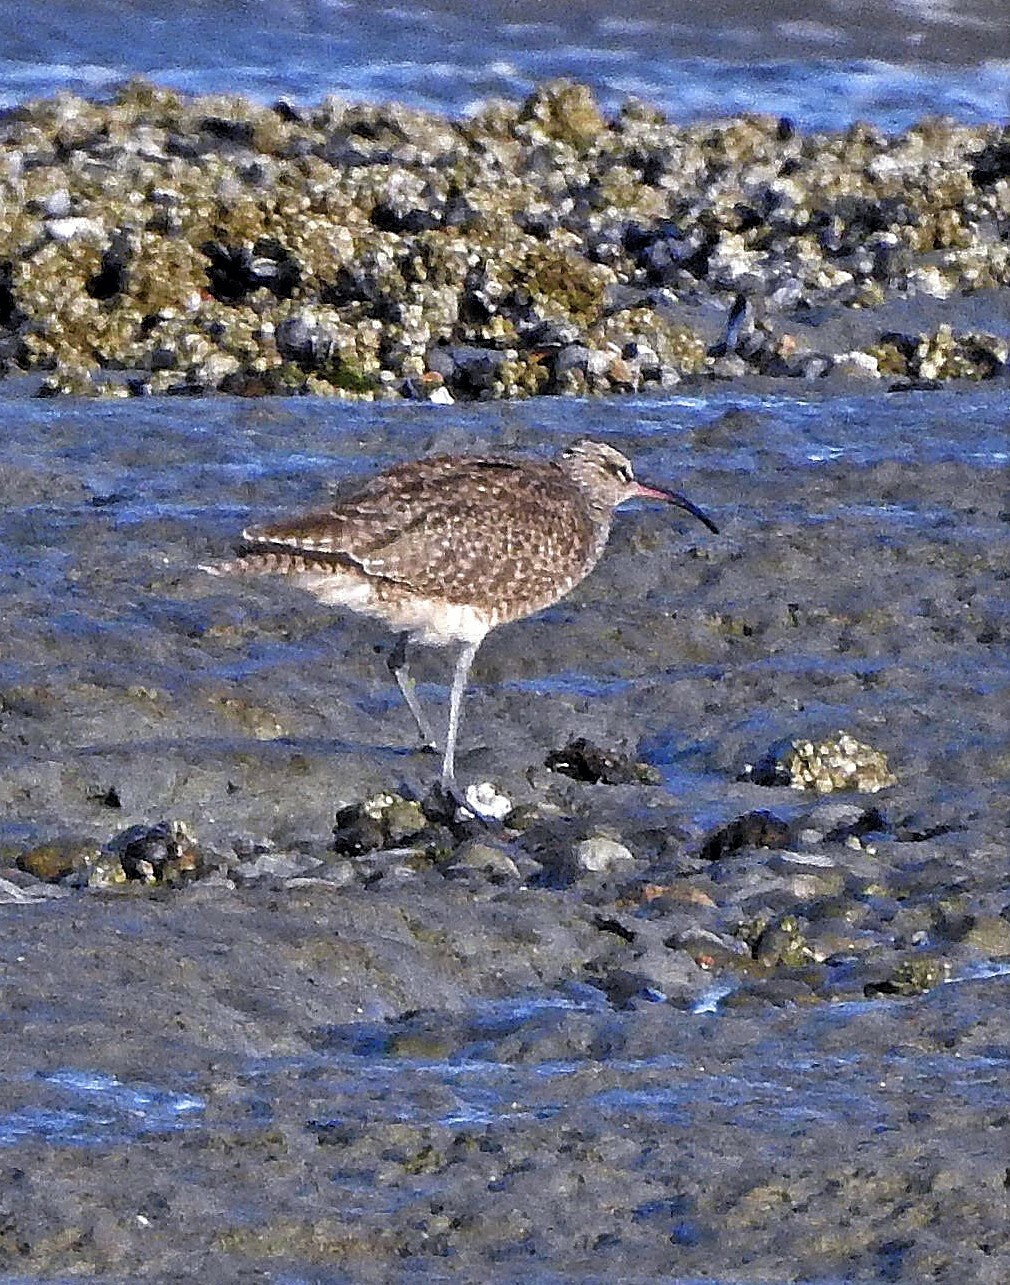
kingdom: Animalia
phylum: Chordata
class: Aves
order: Charadriiformes
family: Scolopacidae
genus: Numenius
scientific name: Numenius phaeopus
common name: Whimbrel
